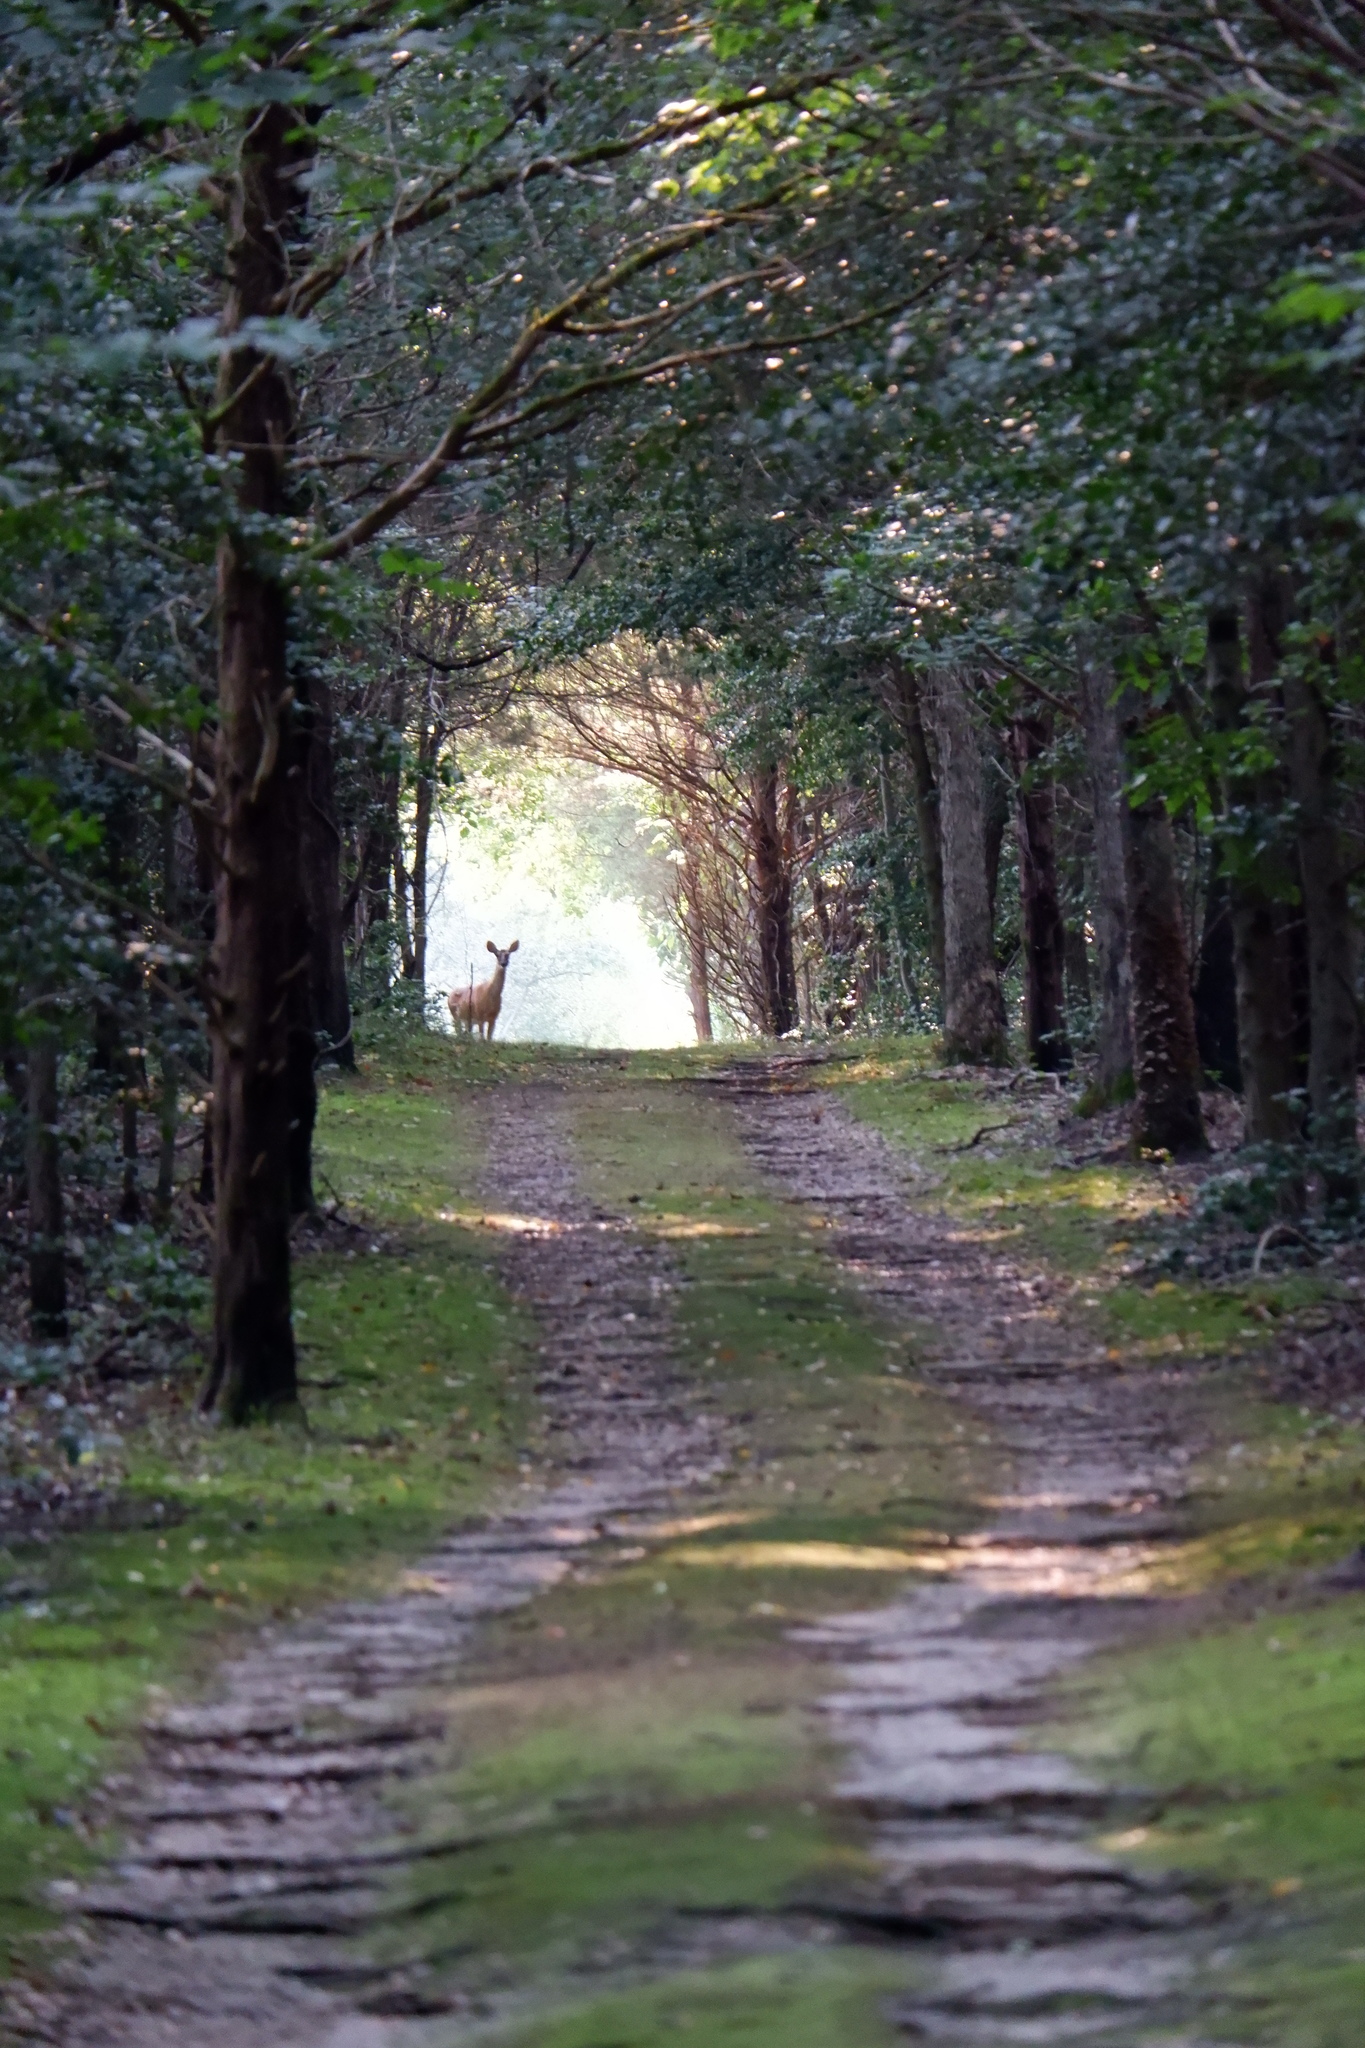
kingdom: Animalia
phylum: Chordata
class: Mammalia
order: Artiodactyla
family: Cervidae
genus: Odocoileus
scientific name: Odocoileus virginianus
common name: White-tailed deer
